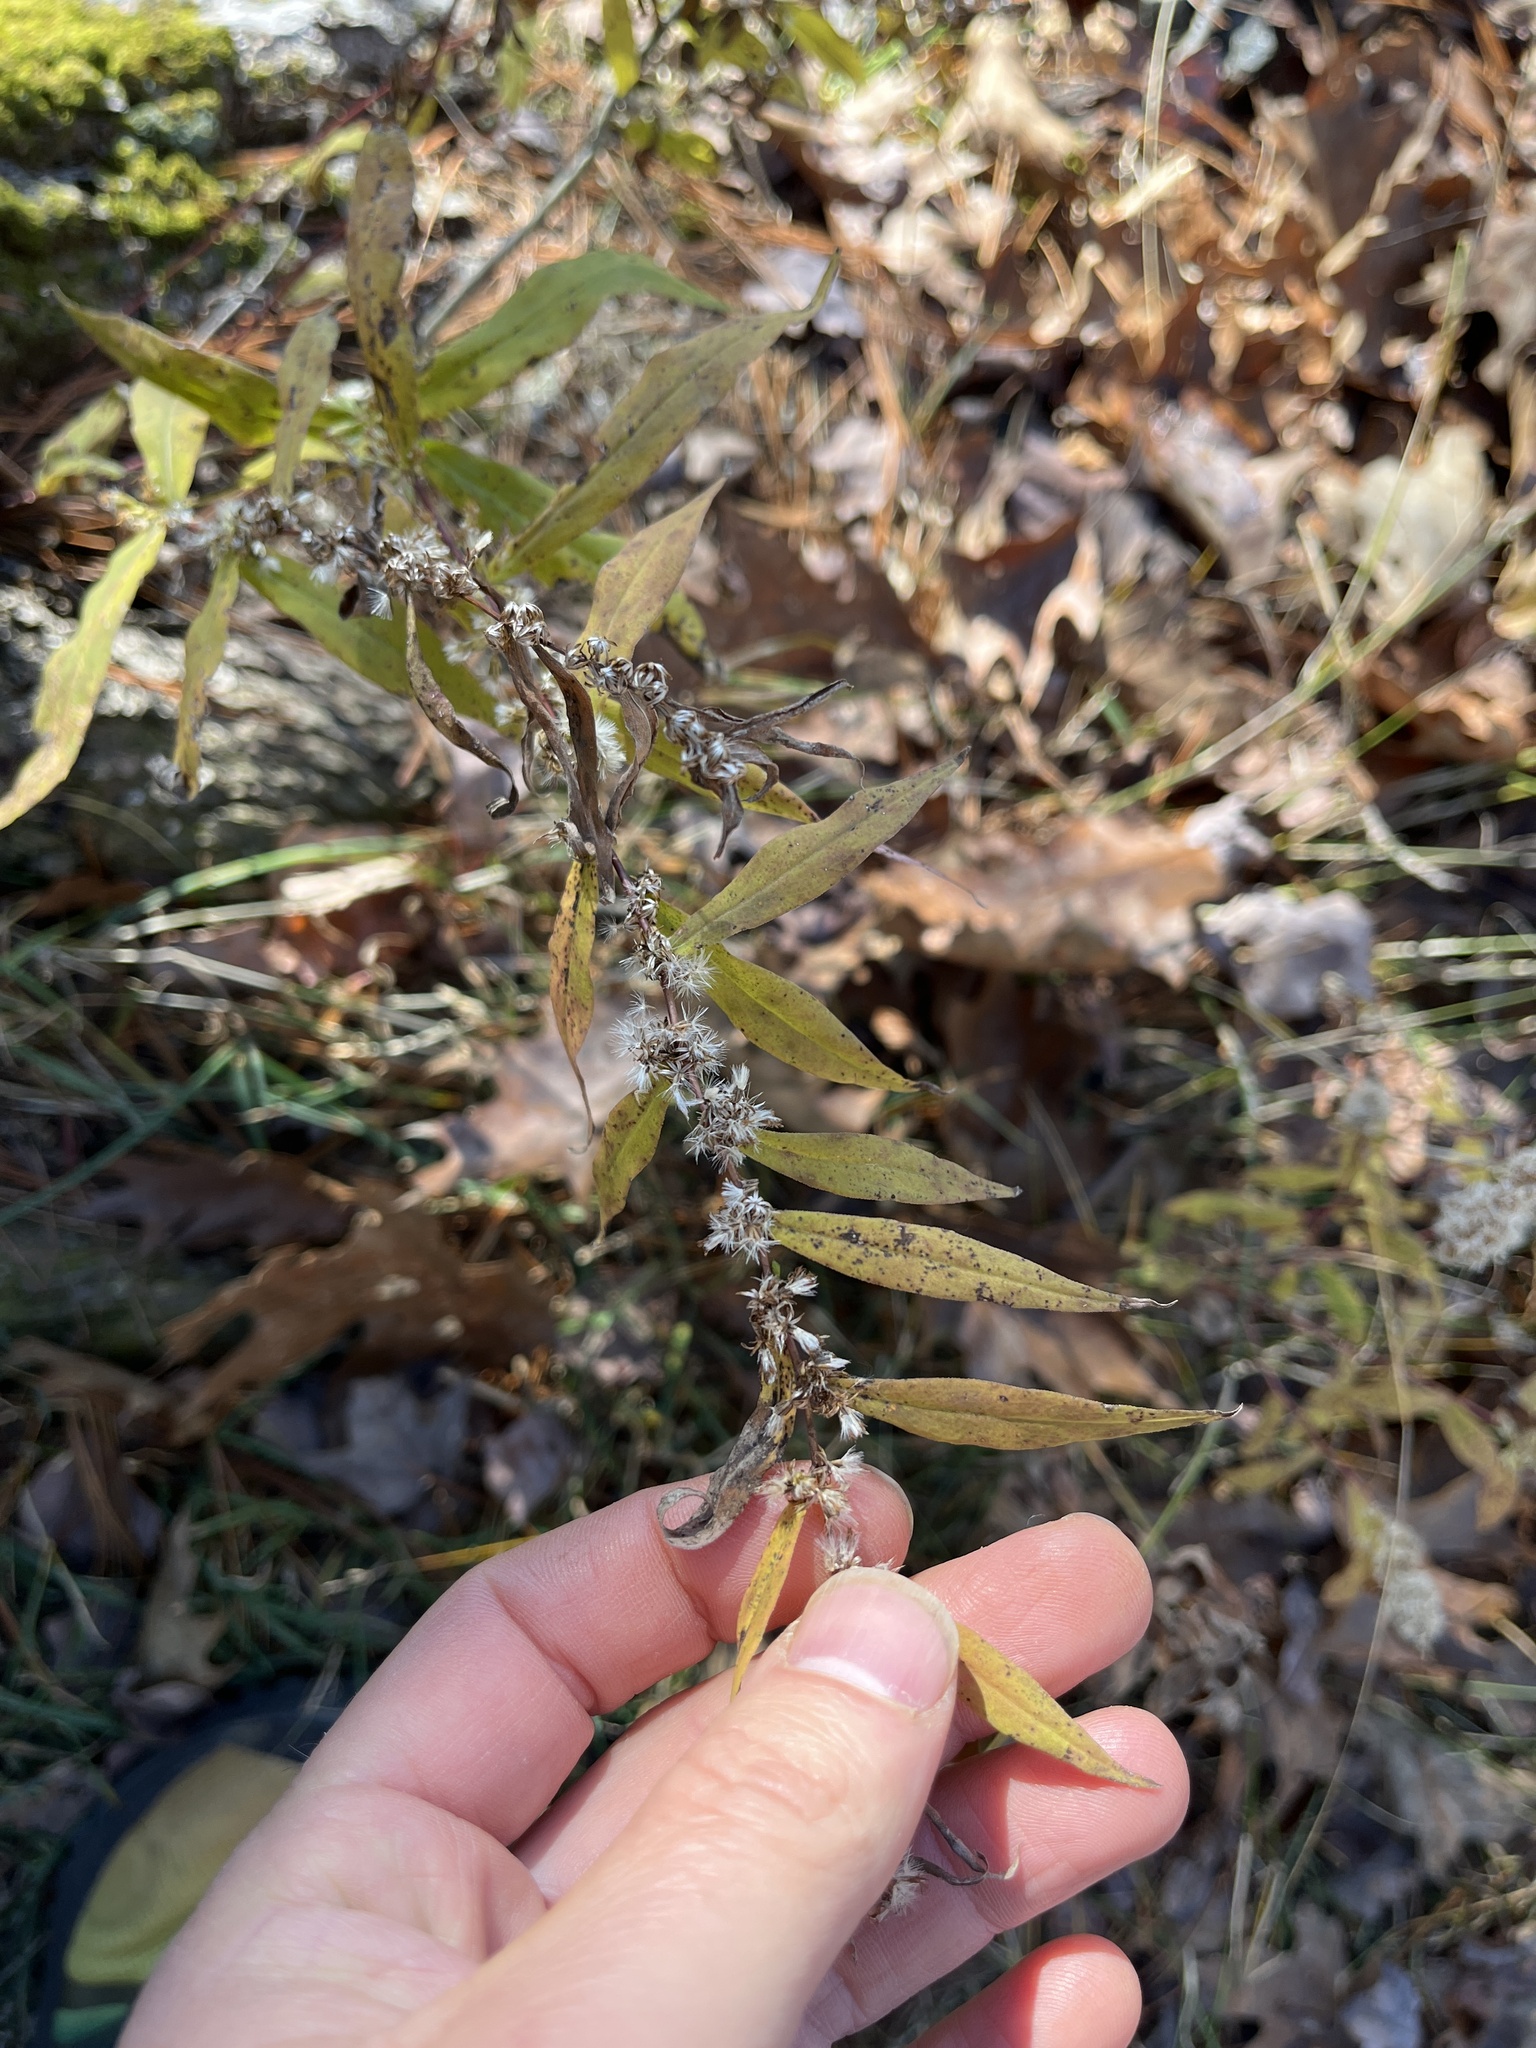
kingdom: Plantae
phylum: Tracheophyta
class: Magnoliopsida
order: Asterales
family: Asteraceae
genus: Solidago
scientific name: Solidago caesia
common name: Woodland goldenrod
